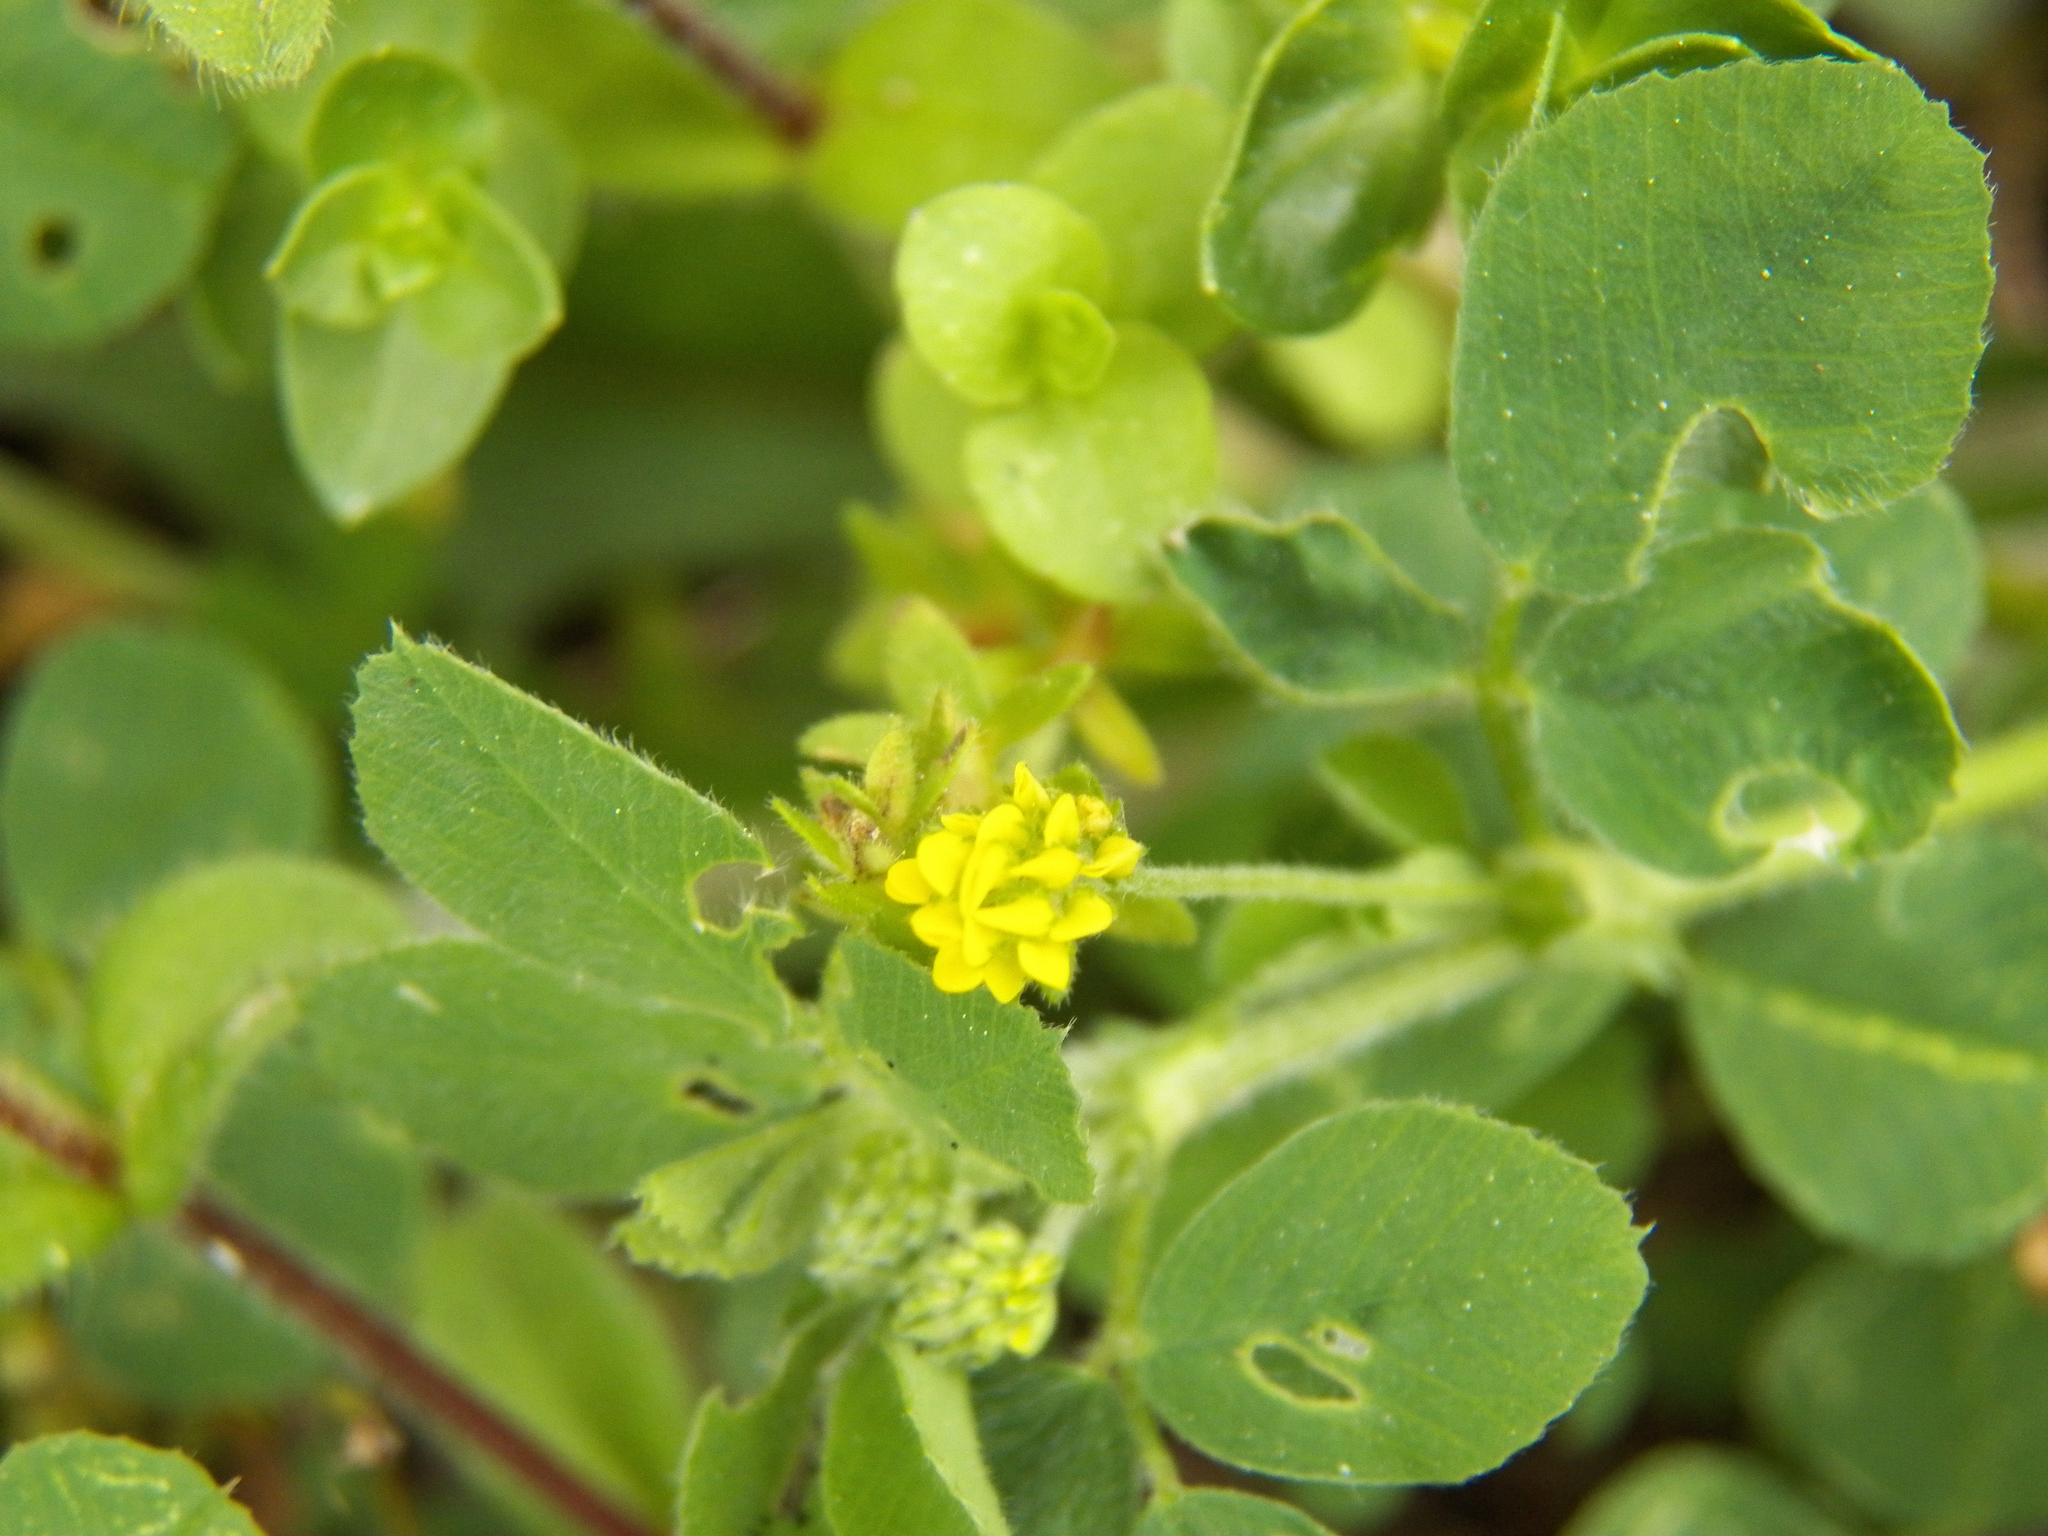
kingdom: Plantae
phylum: Tracheophyta
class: Magnoliopsida
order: Fabales
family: Fabaceae
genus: Medicago
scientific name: Medicago lupulina
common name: Black medick
